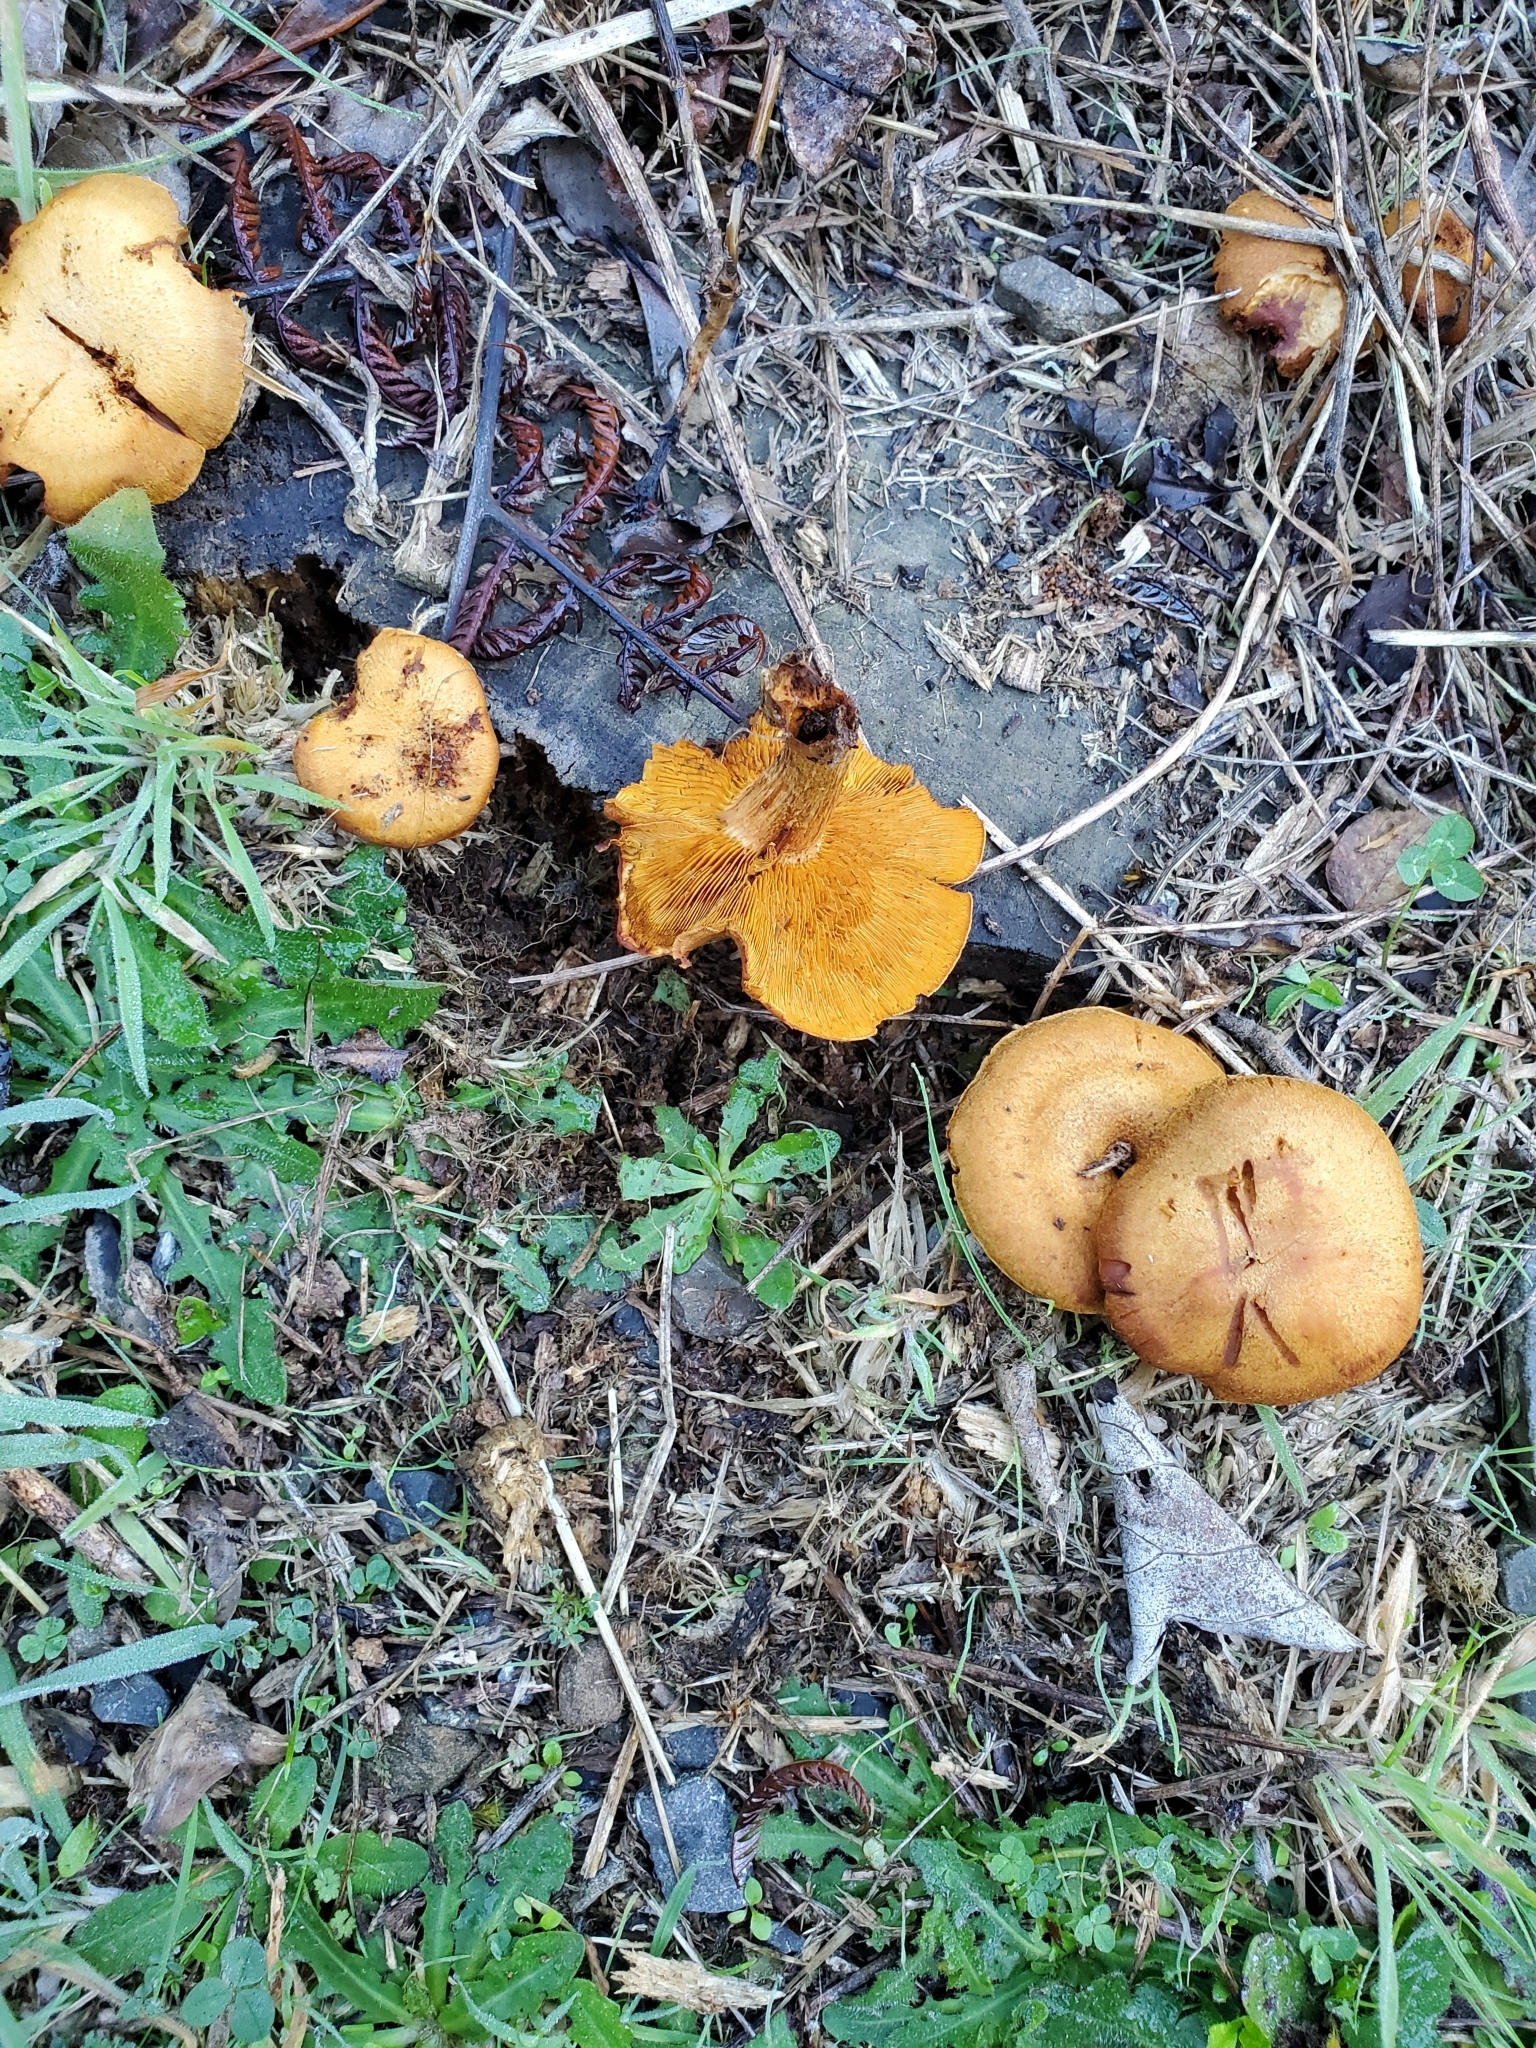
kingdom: Fungi
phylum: Basidiomycota
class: Agaricomycetes
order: Agaricales
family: Hymenogastraceae
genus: Gymnopilus
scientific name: Gymnopilus junonius
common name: Spectacular rustgill
